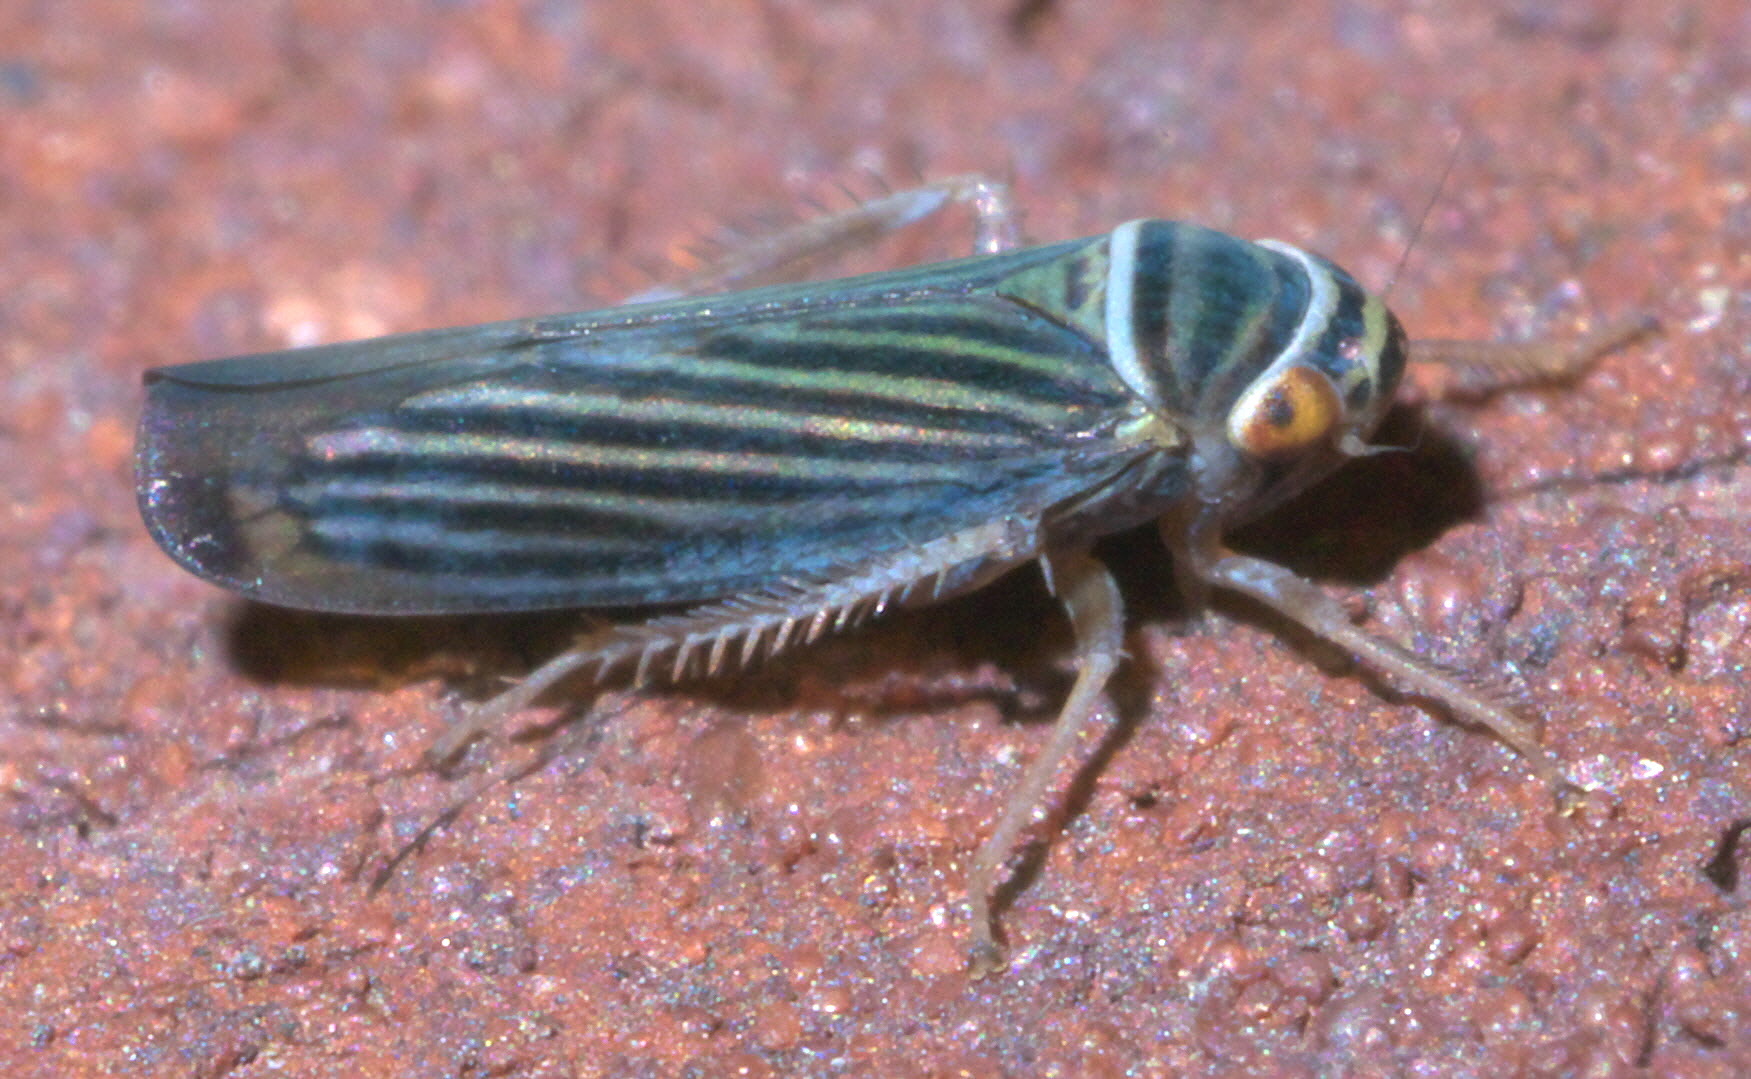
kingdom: Animalia
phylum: Arthropoda
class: Insecta
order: Hemiptera
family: Cicadellidae
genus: Tylozygus
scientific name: Tylozygus bifidus
